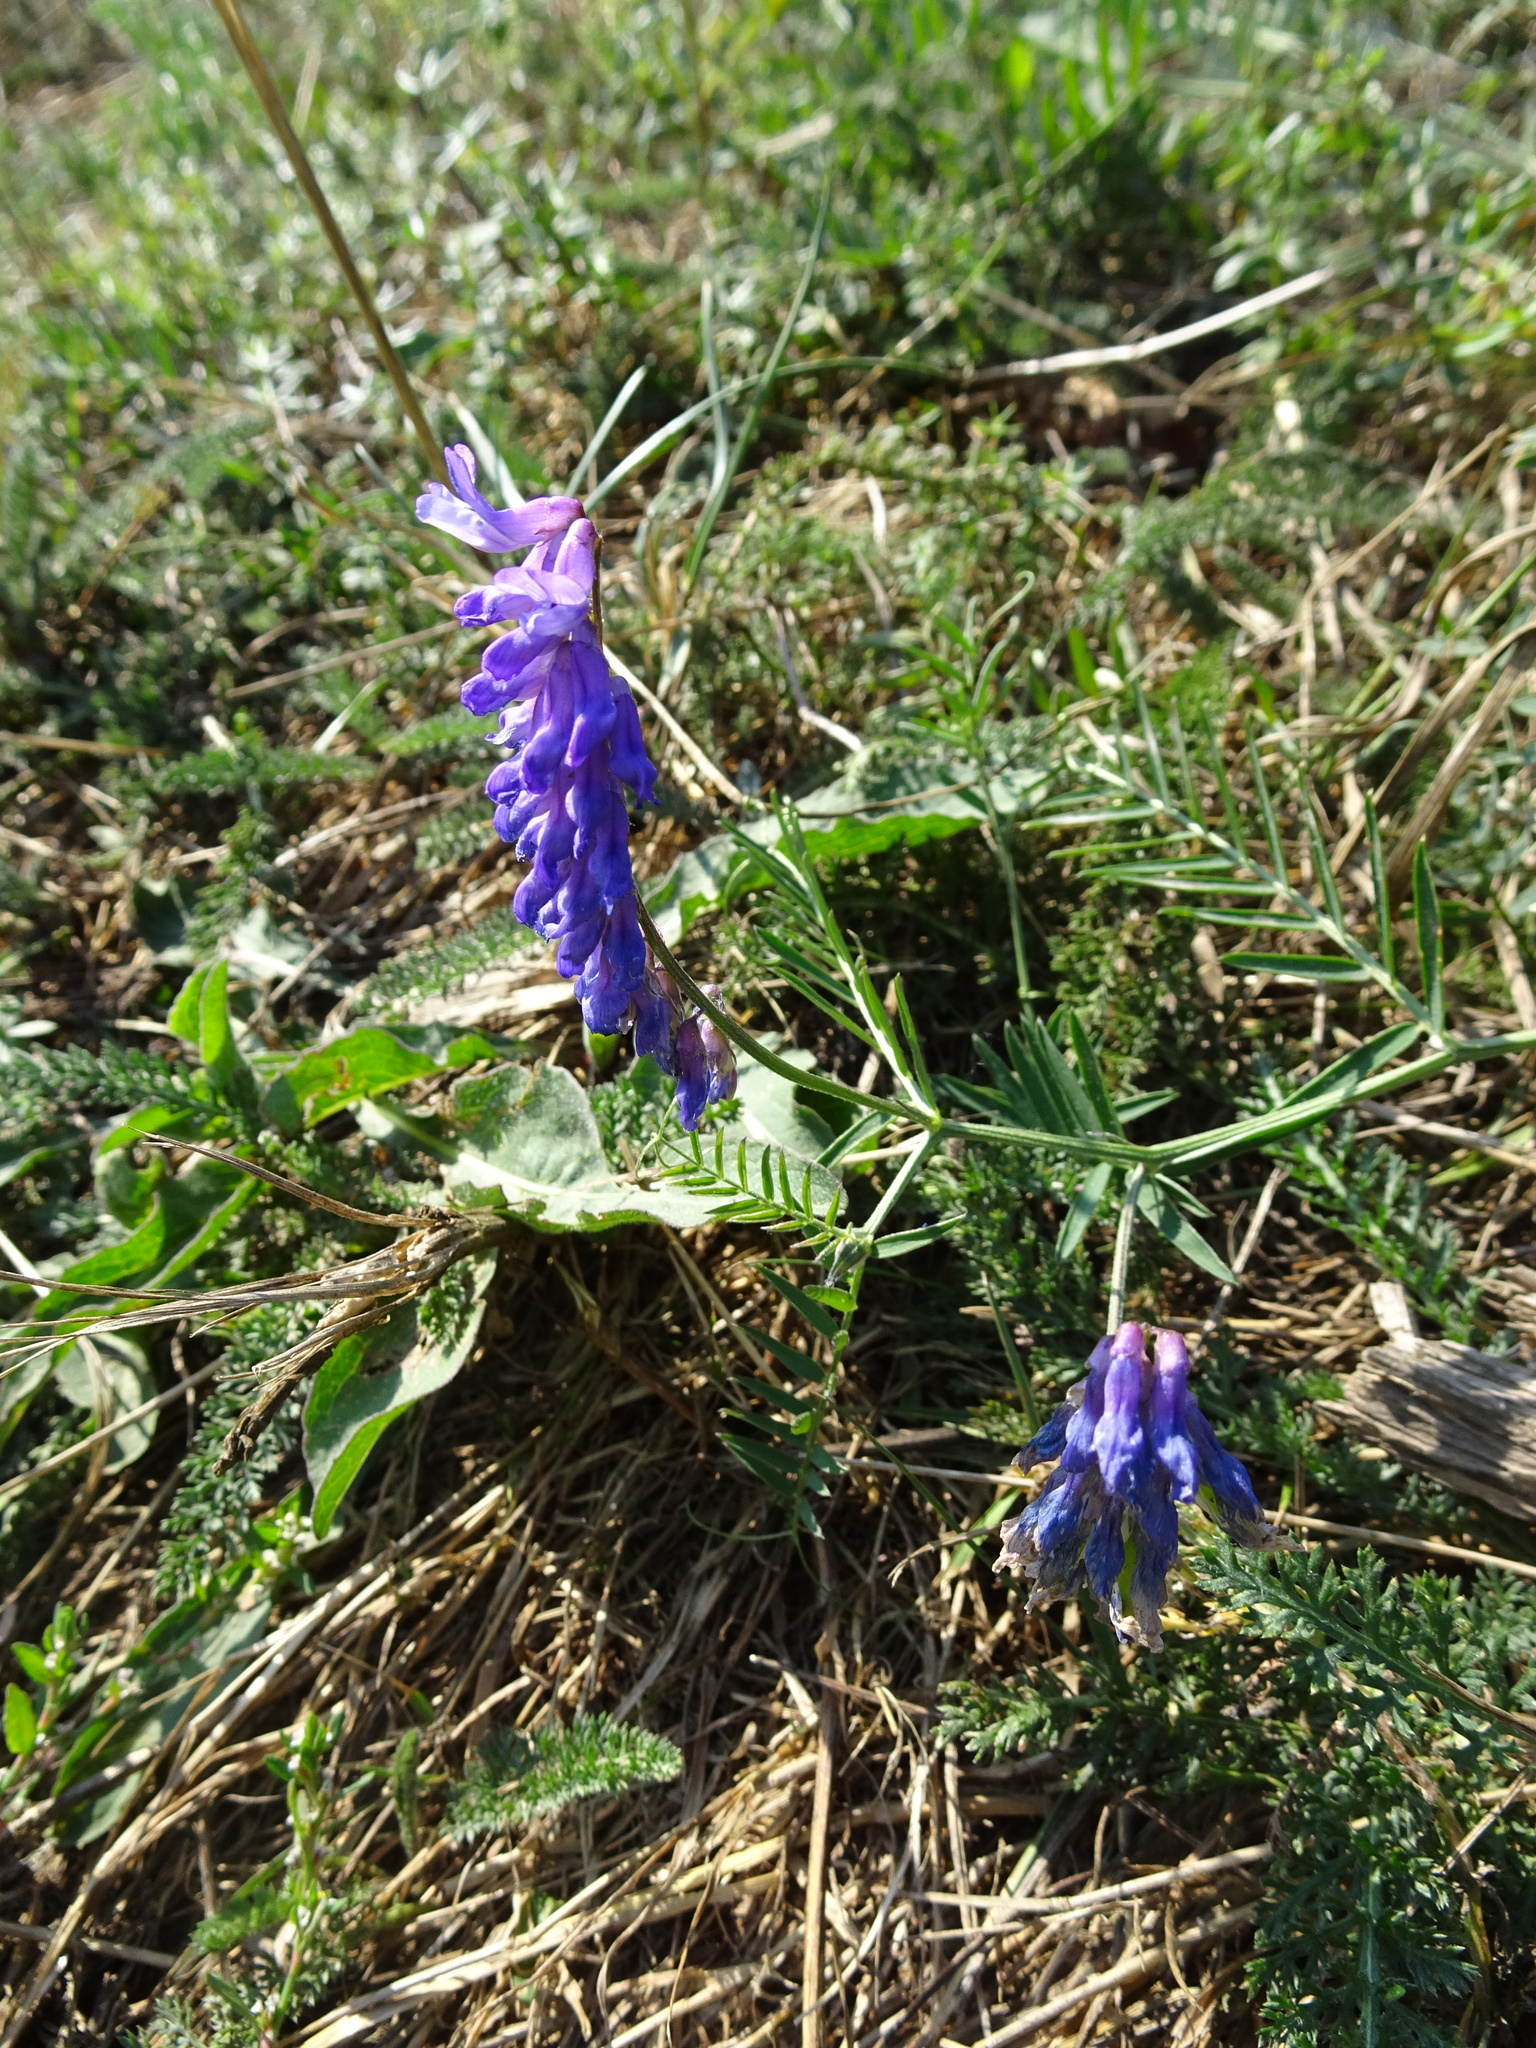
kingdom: Plantae
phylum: Tracheophyta
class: Magnoliopsida
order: Fabales
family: Fabaceae
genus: Vicia
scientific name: Vicia cracca
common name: Bird vetch
